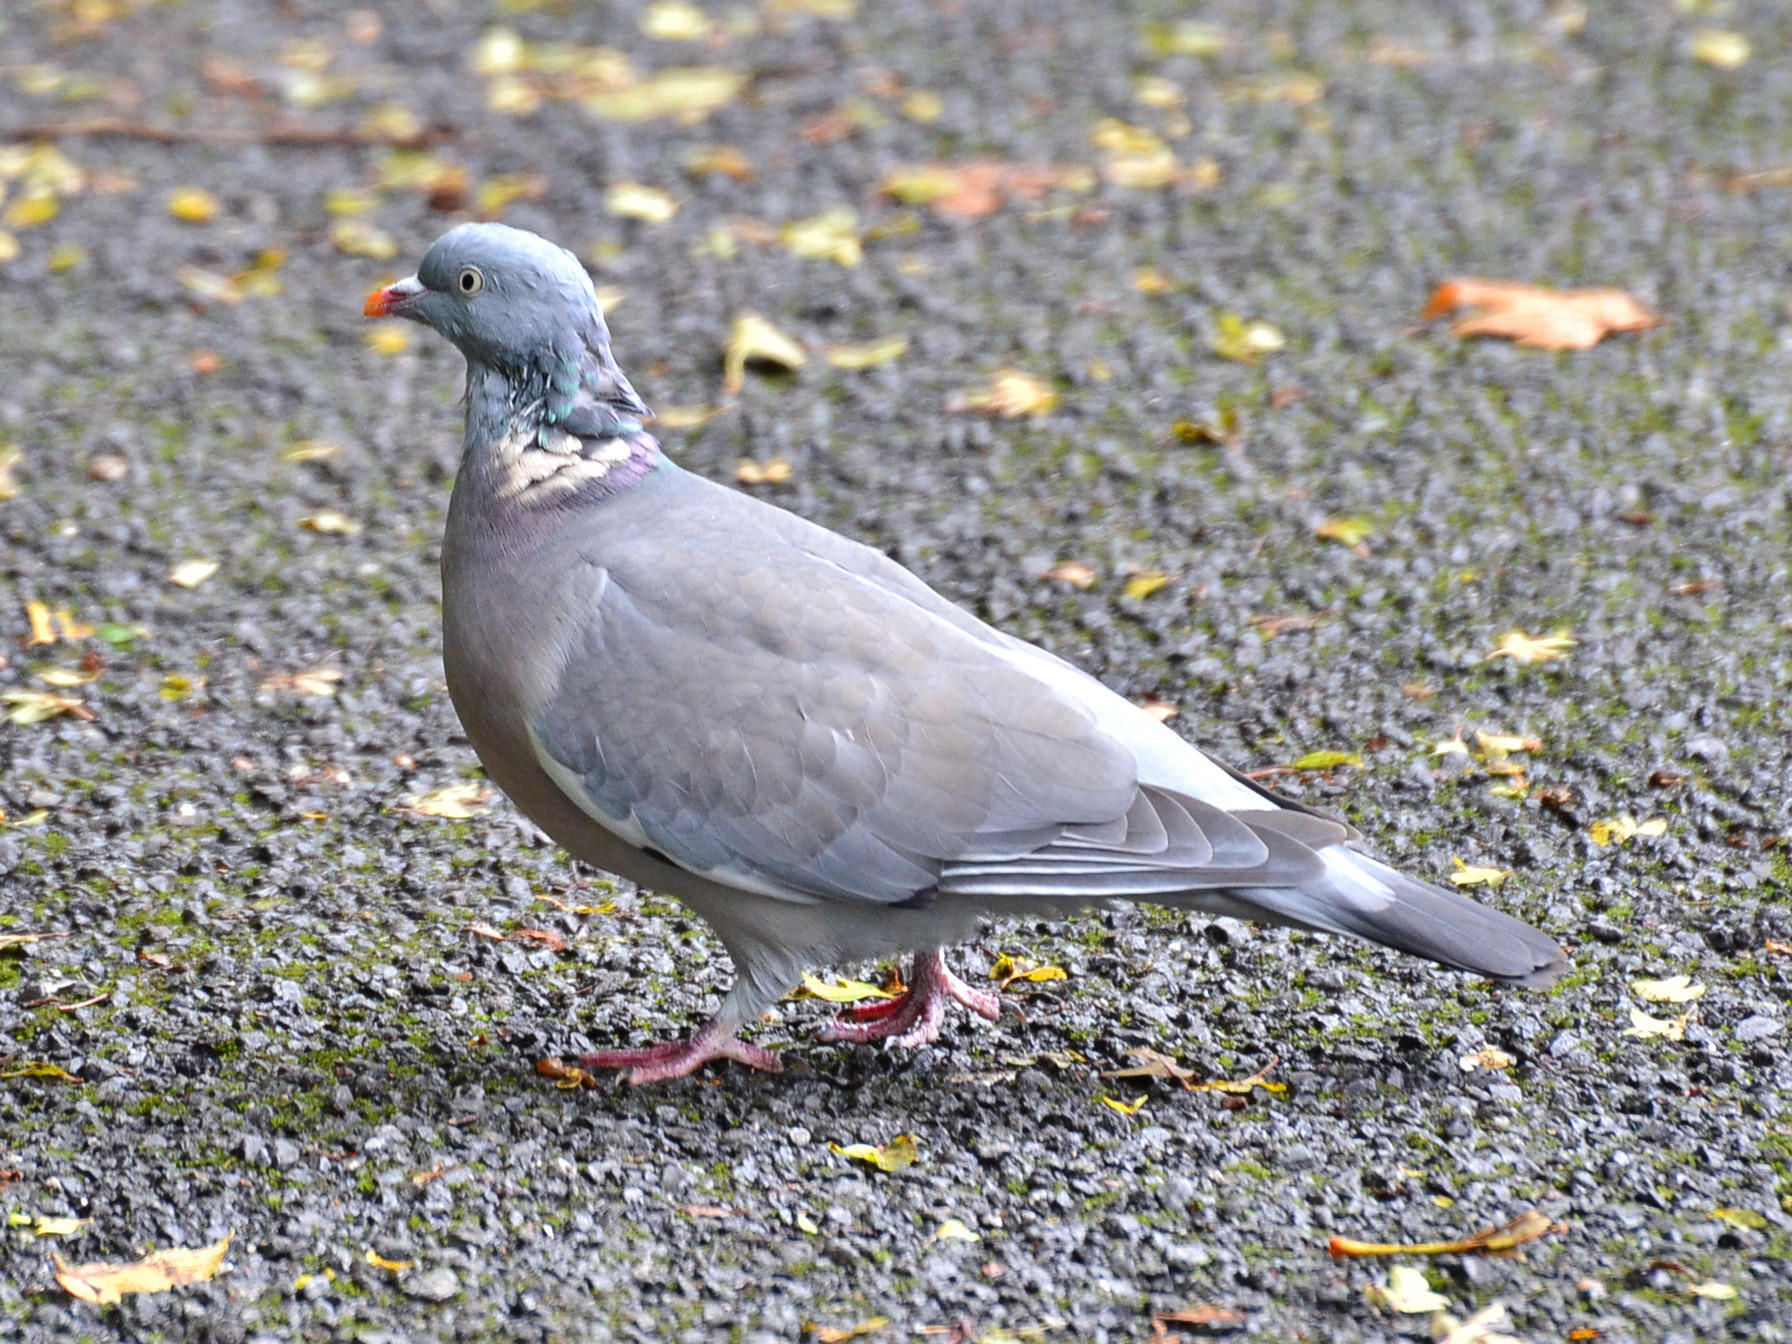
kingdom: Animalia
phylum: Chordata
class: Aves
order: Columbiformes
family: Columbidae
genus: Columba
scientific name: Columba palumbus
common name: Common wood pigeon
